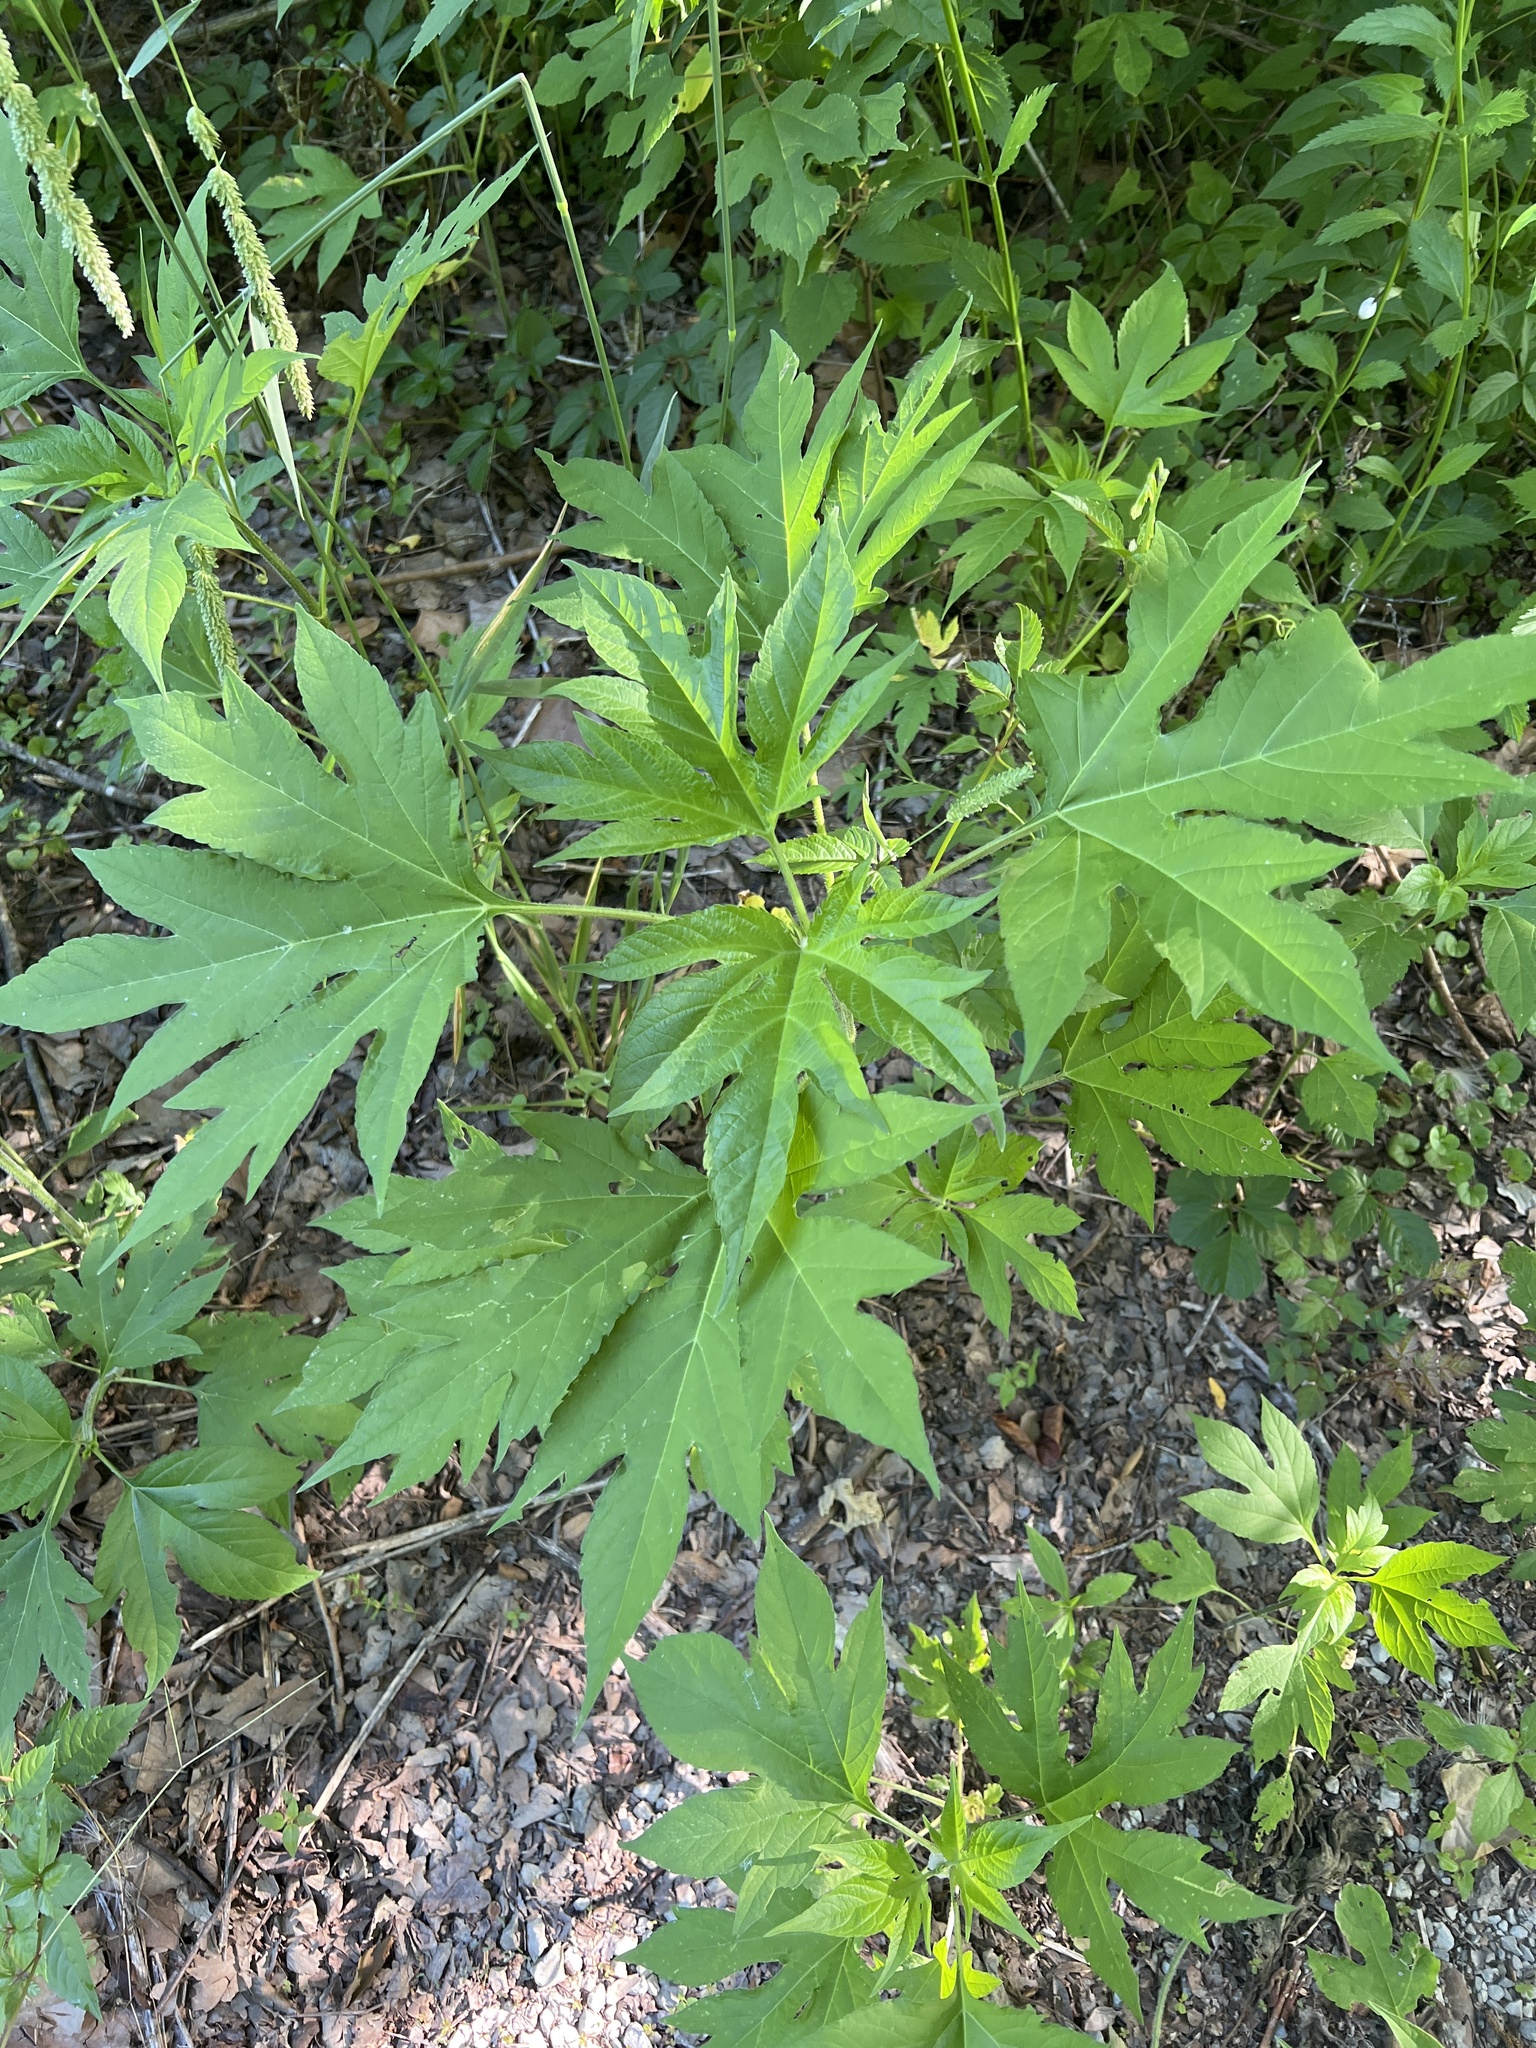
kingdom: Plantae
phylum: Tracheophyta
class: Magnoliopsida
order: Asterales
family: Asteraceae
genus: Ambrosia
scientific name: Ambrosia trifida
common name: Giant ragweed
